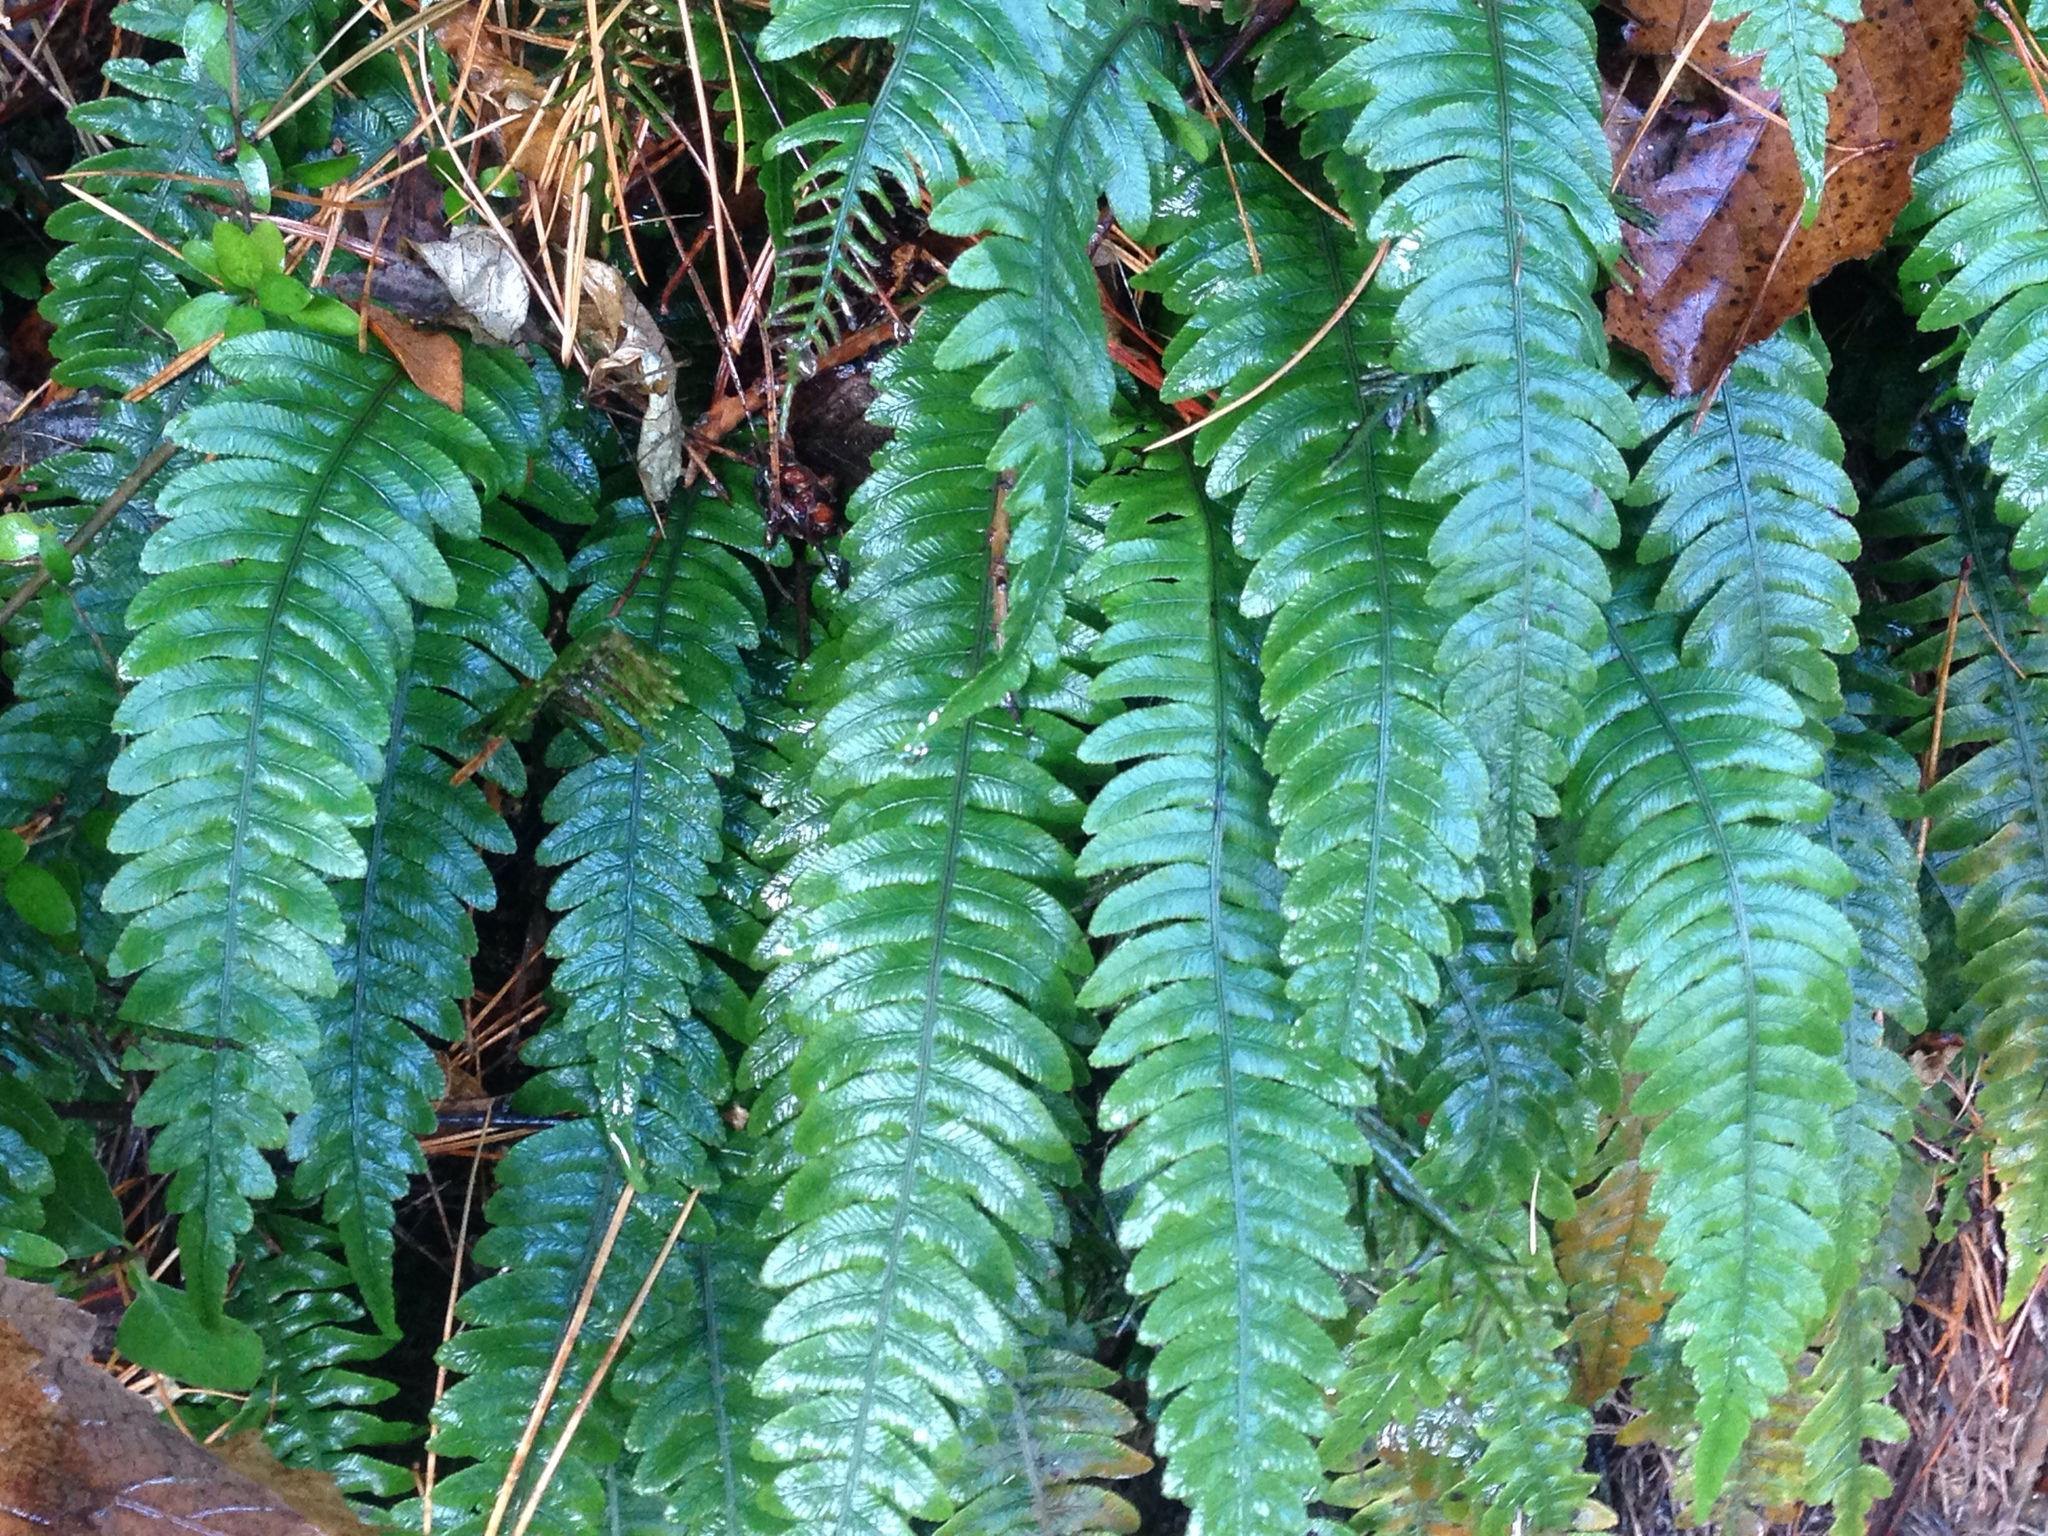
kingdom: Plantae
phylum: Tracheophyta
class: Polypodiopsida
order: Polypodiales
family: Blechnaceae
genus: Austroblechnum
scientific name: Austroblechnum lanceolatum
